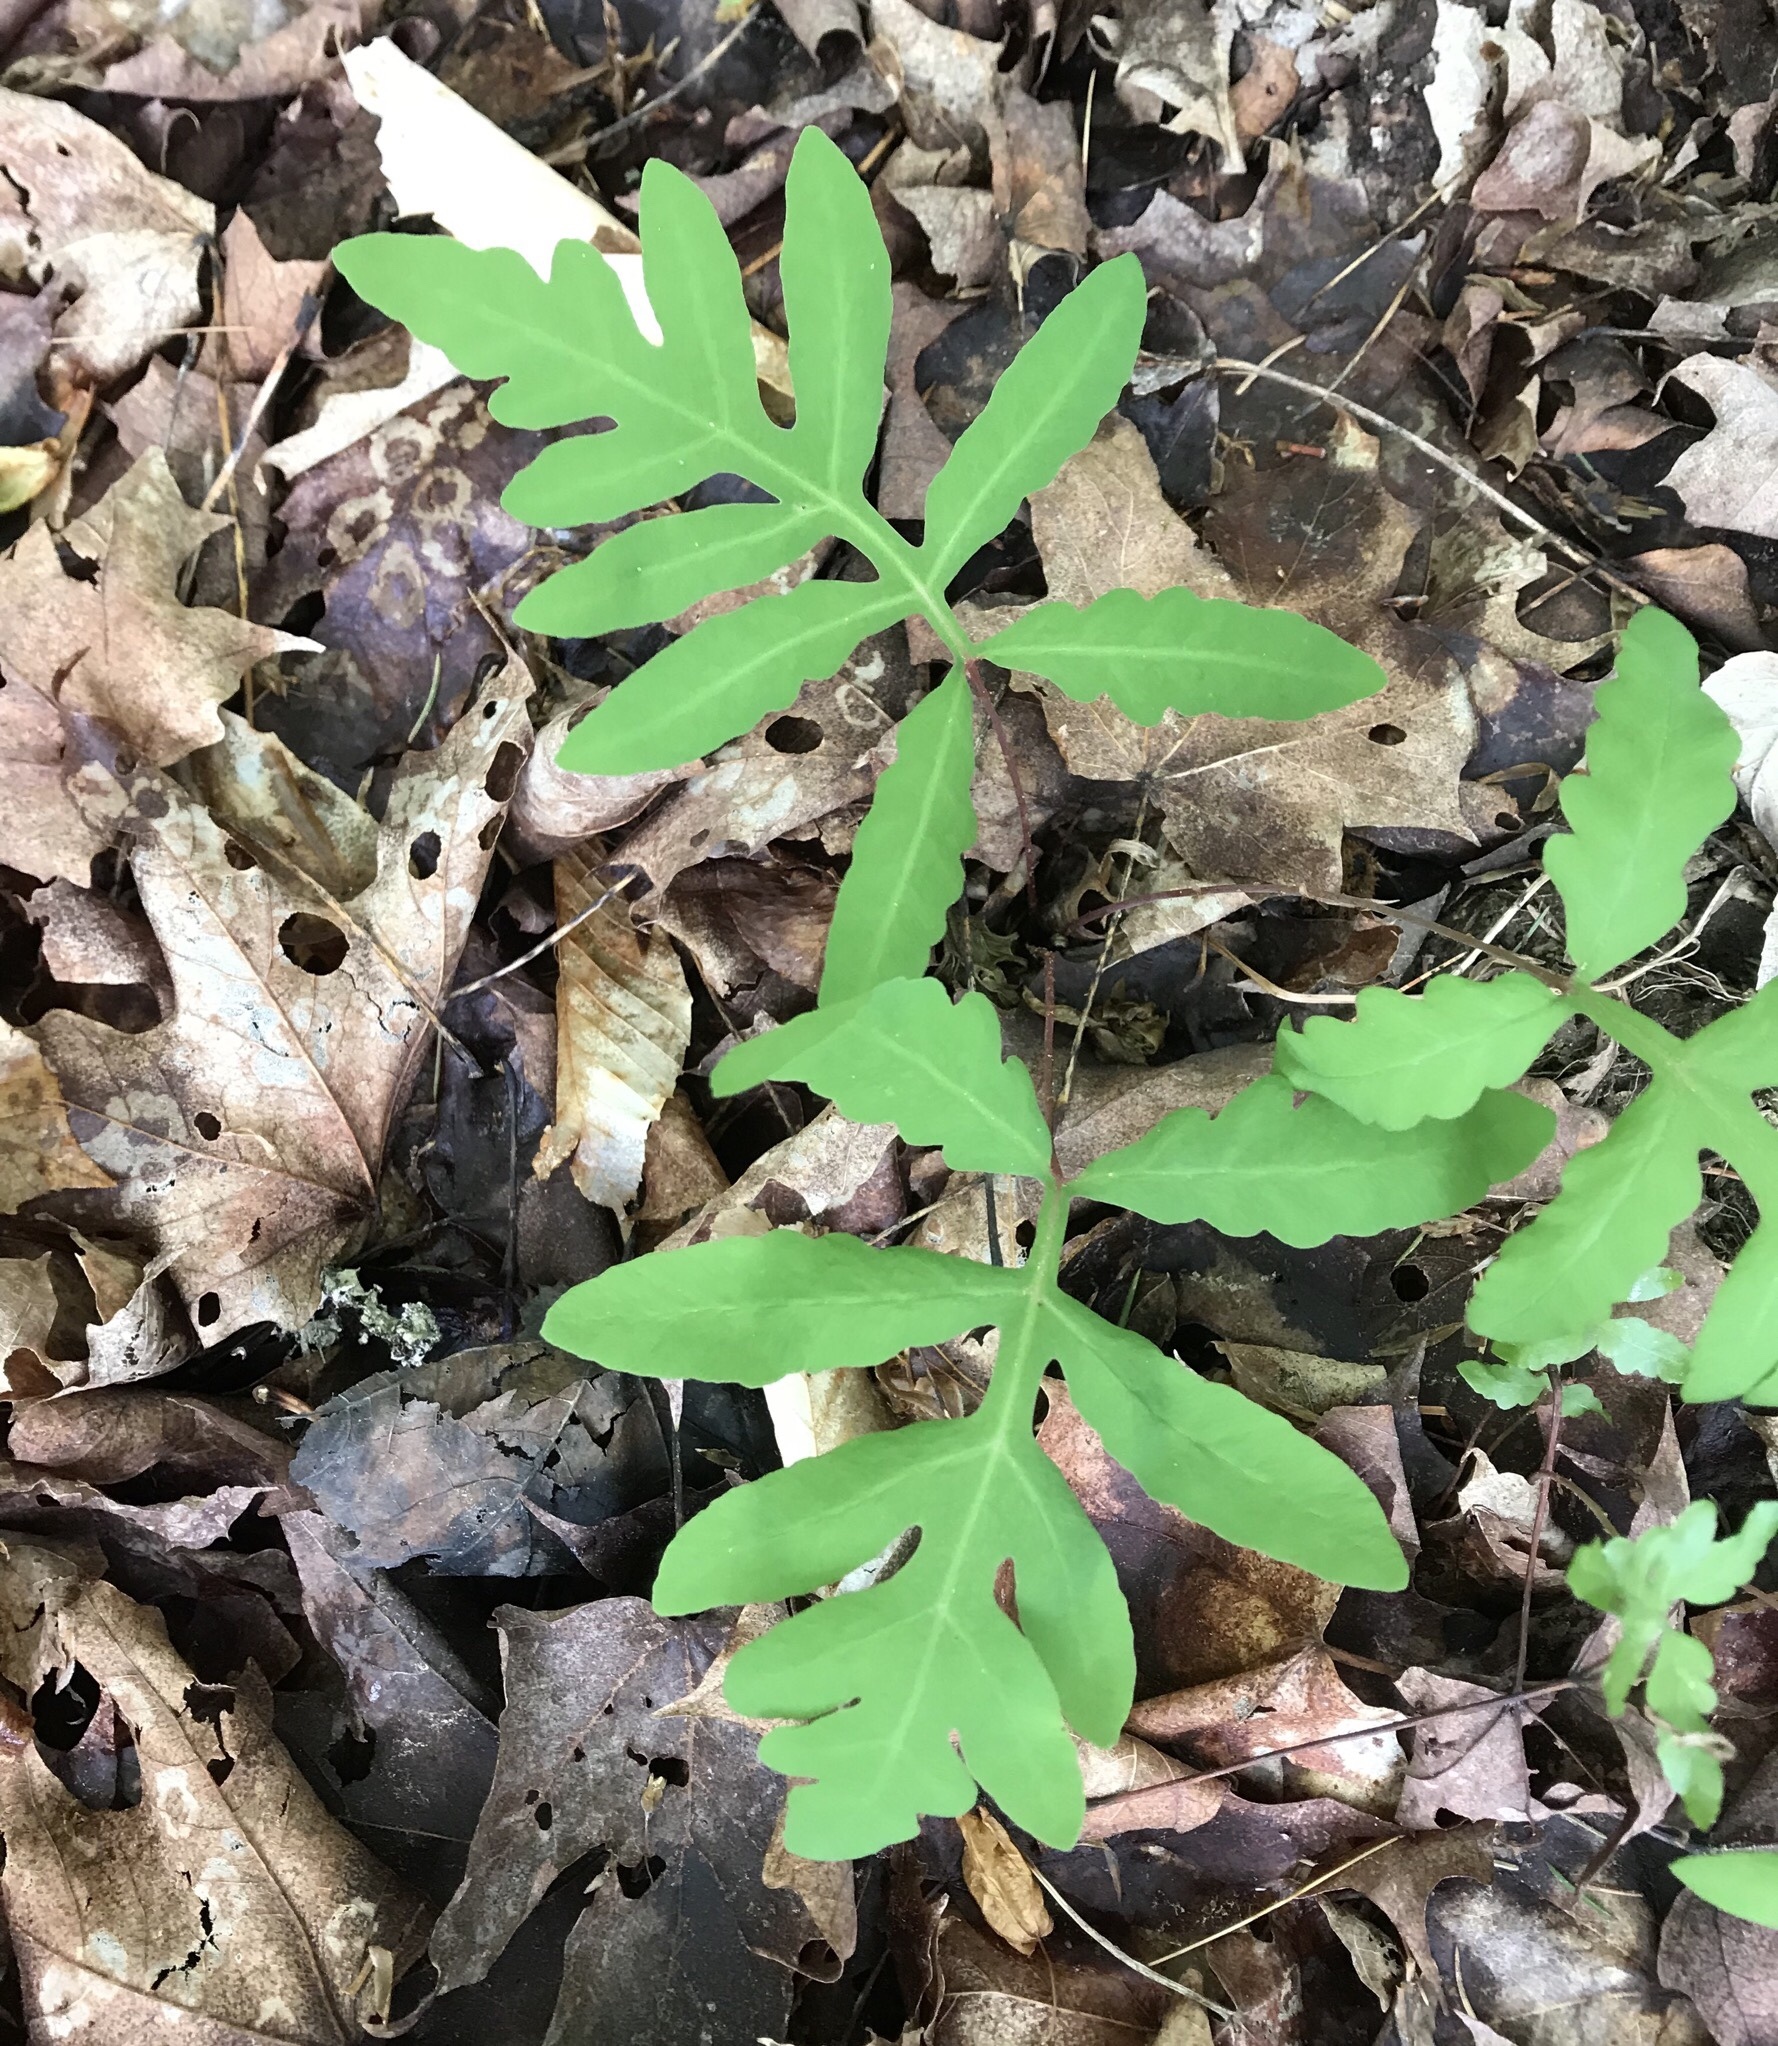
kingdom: Plantae
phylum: Tracheophyta
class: Polypodiopsida
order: Polypodiales
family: Onocleaceae
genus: Onoclea
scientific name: Onoclea sensibilis
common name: Sensitive fern
